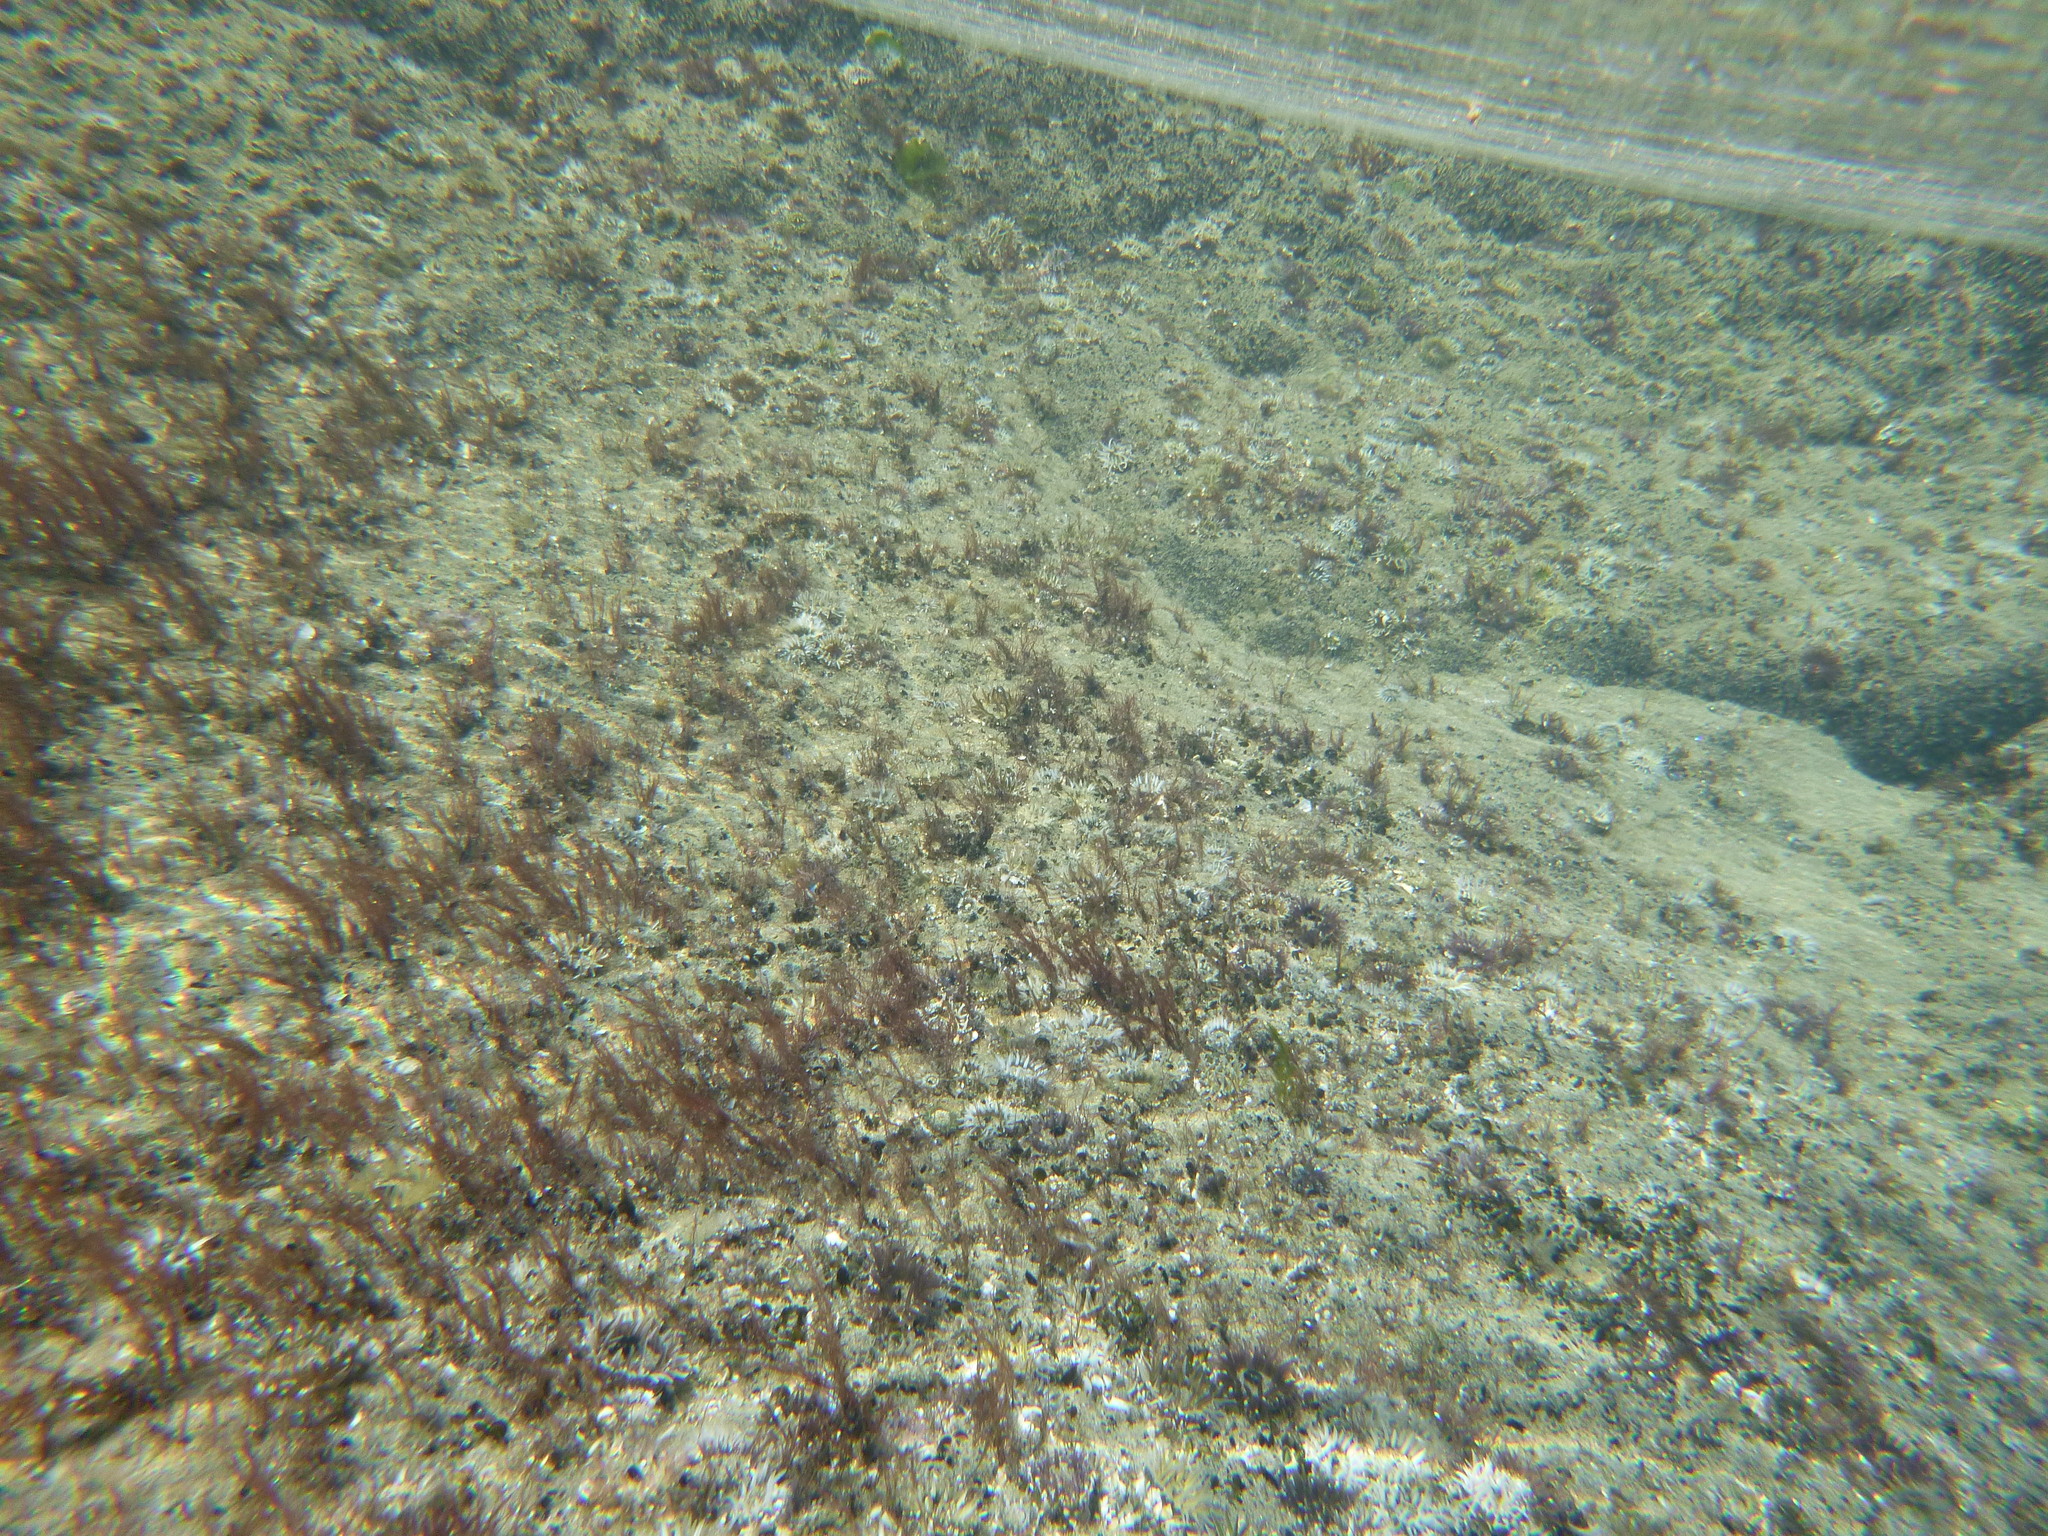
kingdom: Animalia
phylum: Cnidaria
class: Anthozoa
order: Actiniaria
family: Actiniidae
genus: Oulactis
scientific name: Oulactis magna
